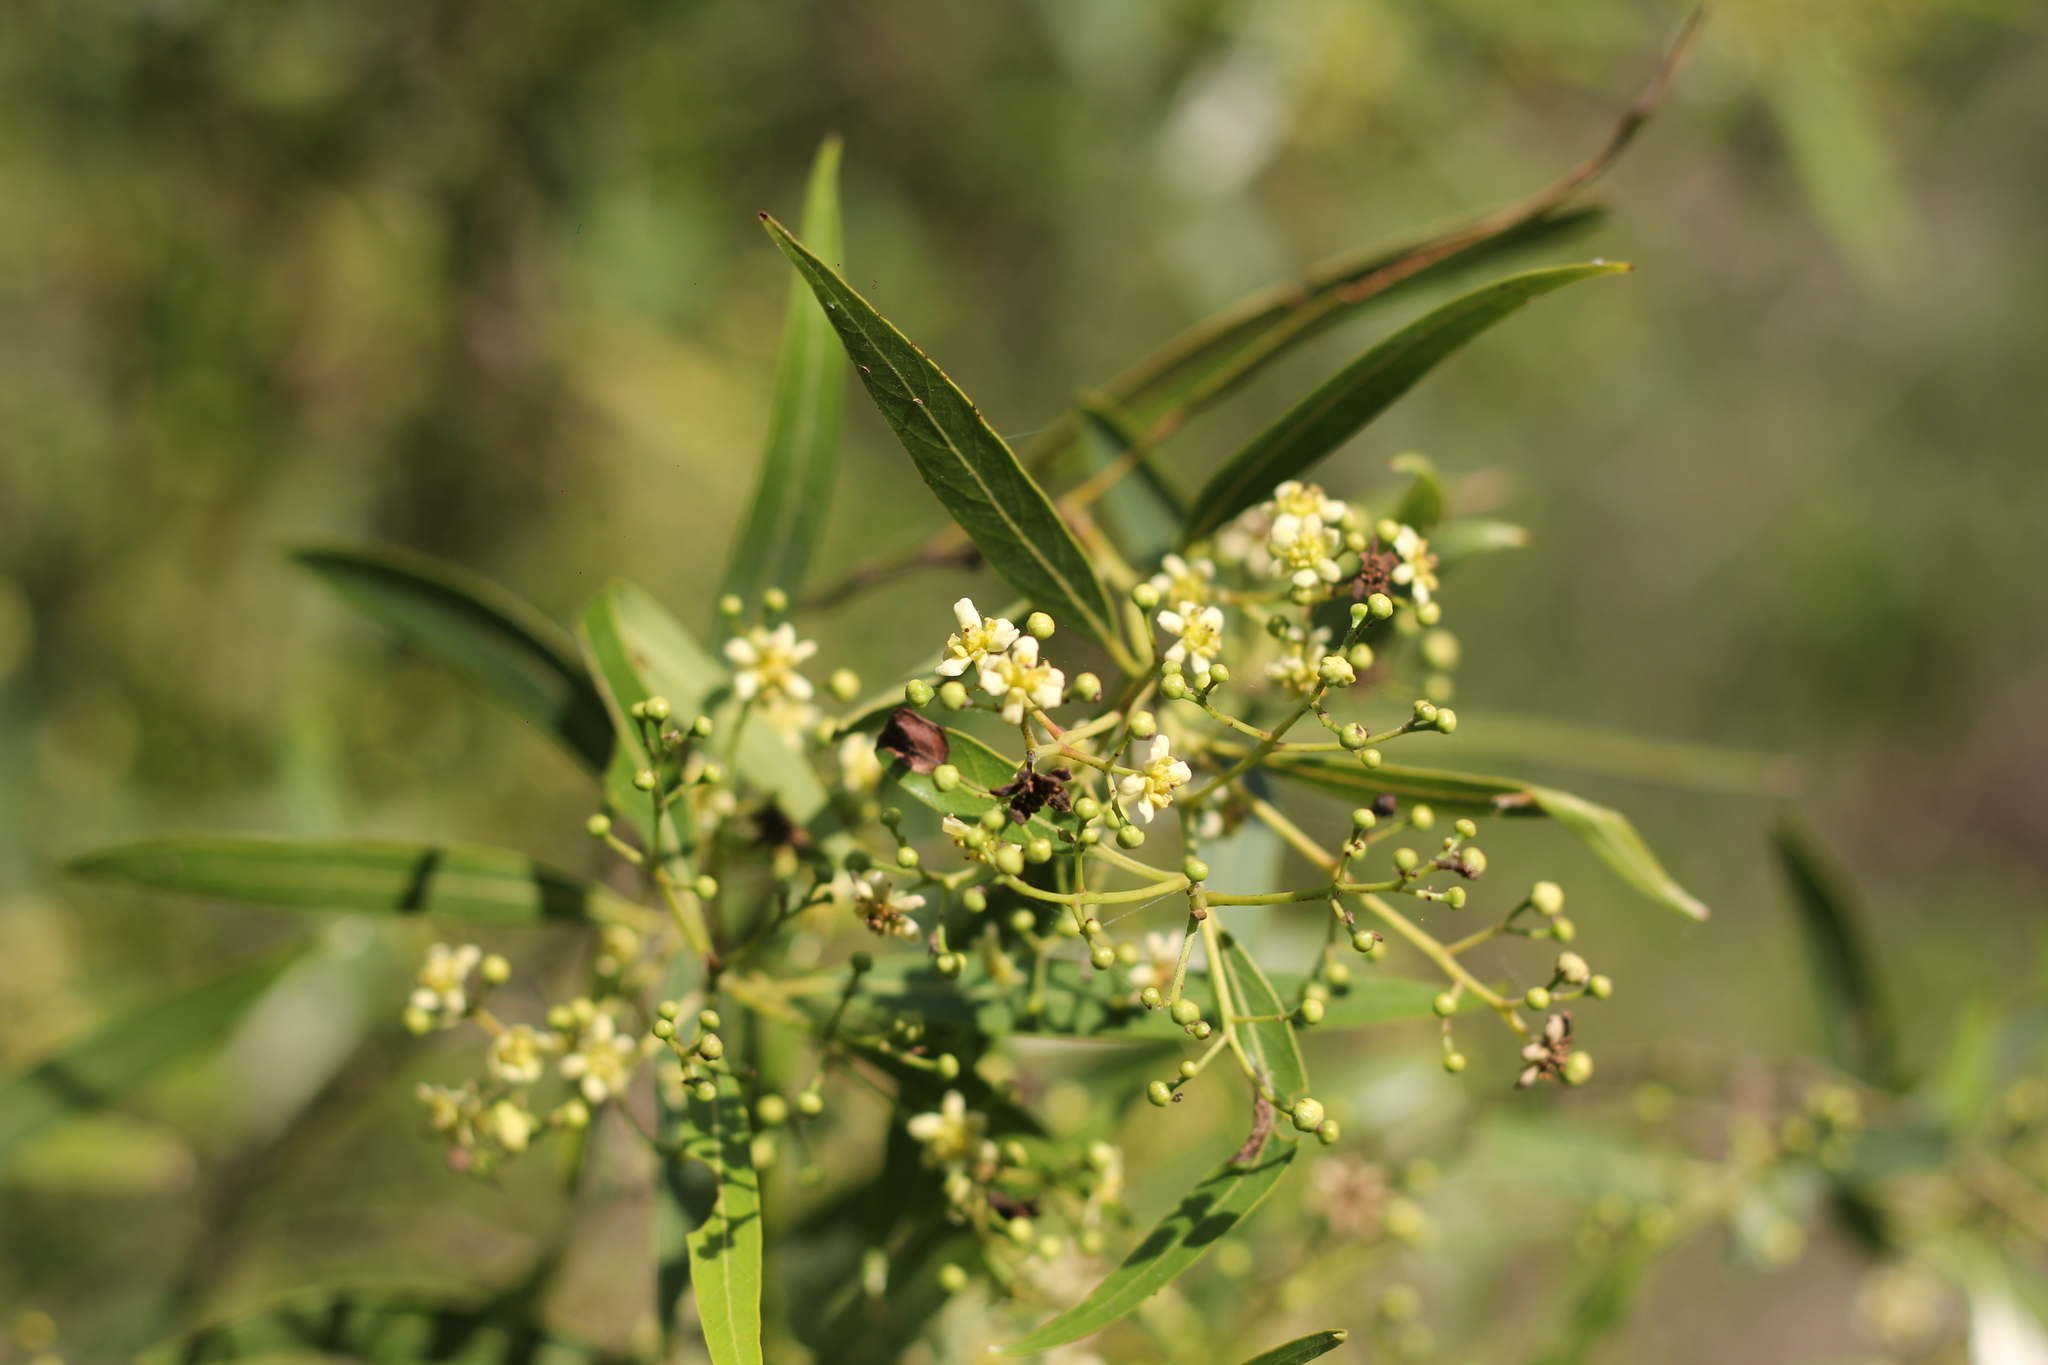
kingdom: Plantae
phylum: Tracheophyta
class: Magnoliopsida
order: Laurales
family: Lauraceae
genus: Nectandra
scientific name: Nectandra angustifolia
